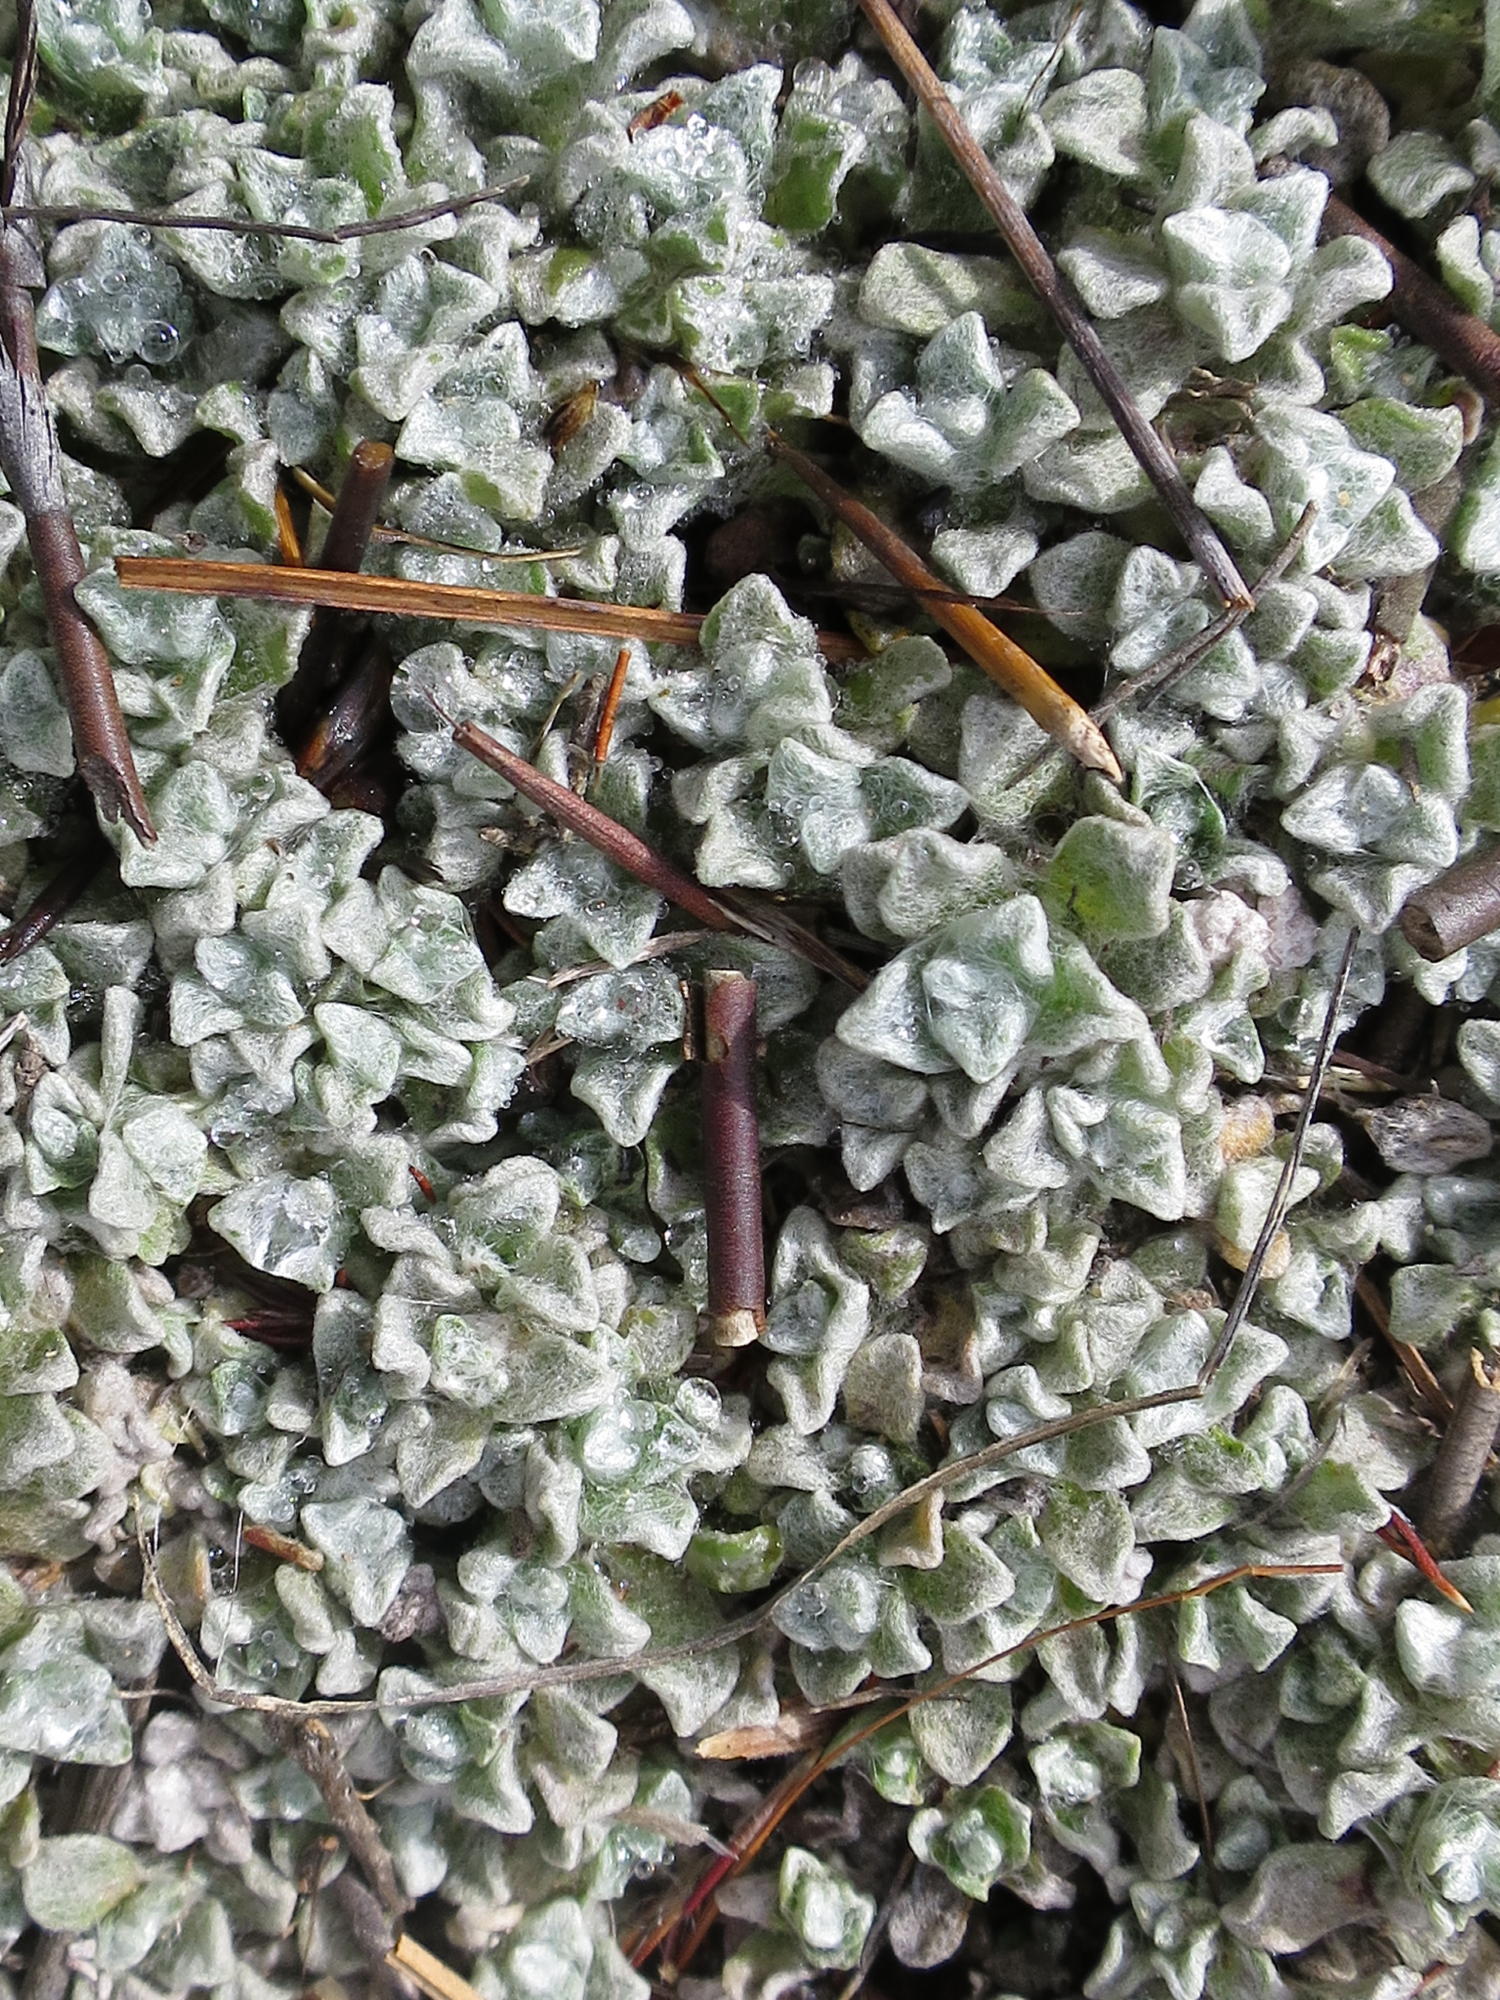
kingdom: Plantae
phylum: Tracheophyta
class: Magnoliopsida
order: Asterales
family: Asteraceae
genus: Helichrysum
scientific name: Helichrysum saxicola
